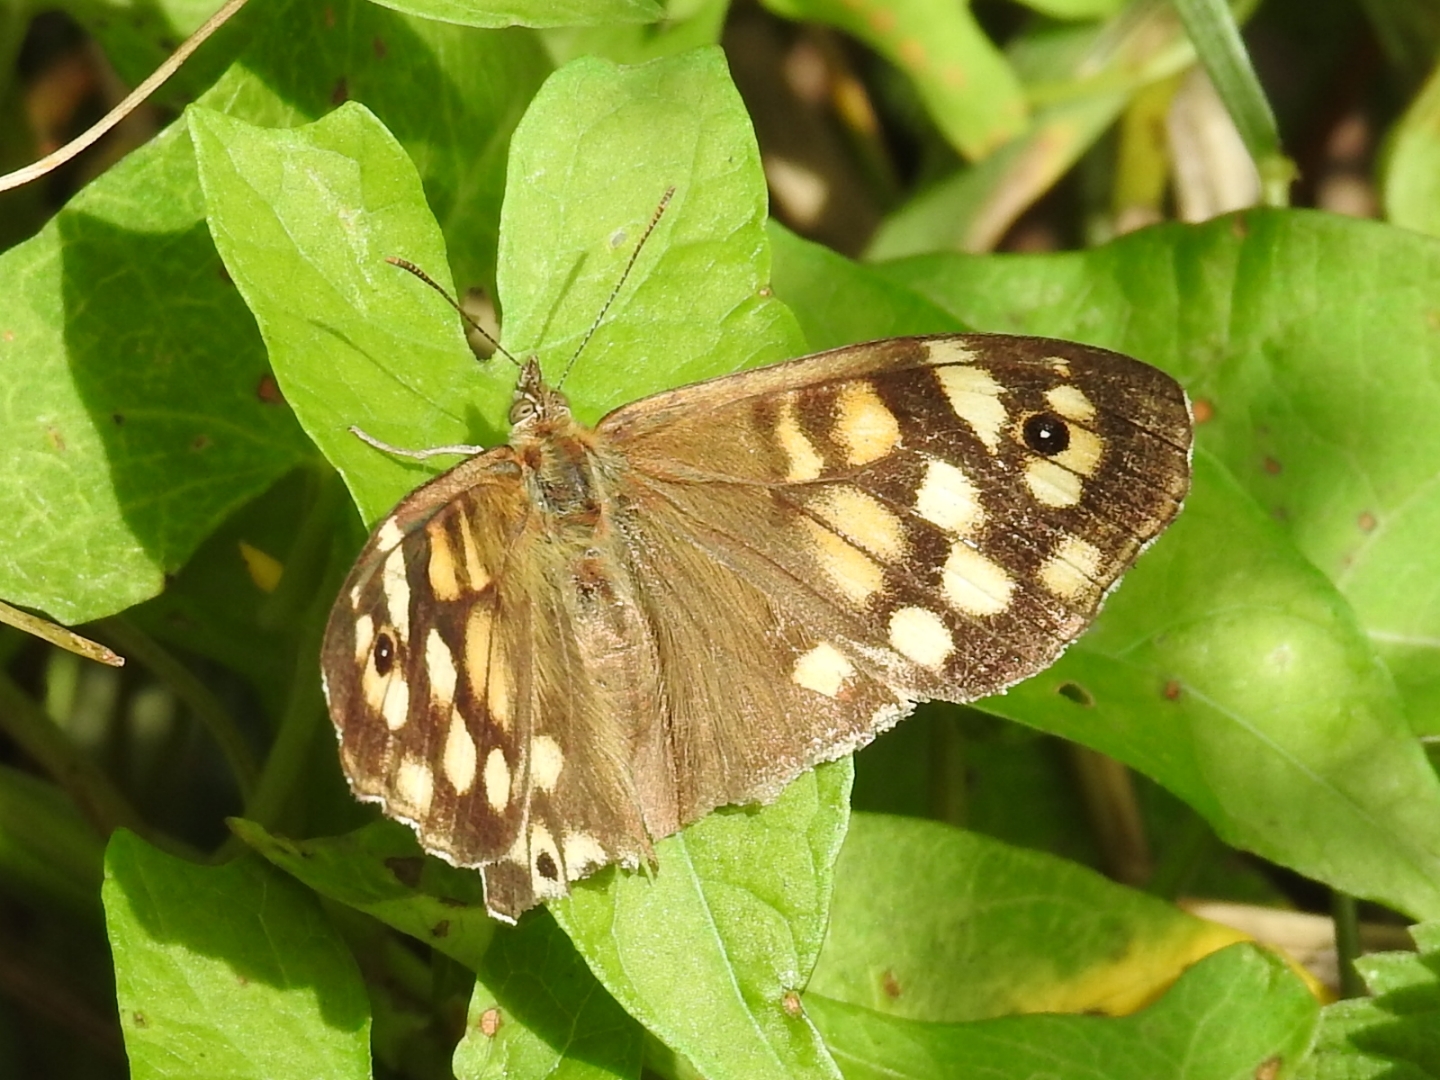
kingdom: Animalia
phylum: Arthropoda
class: Insecta
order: Lepidoptera
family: Nymphalidae
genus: Pararge
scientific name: Pararge aegeria
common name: Speckled wood
